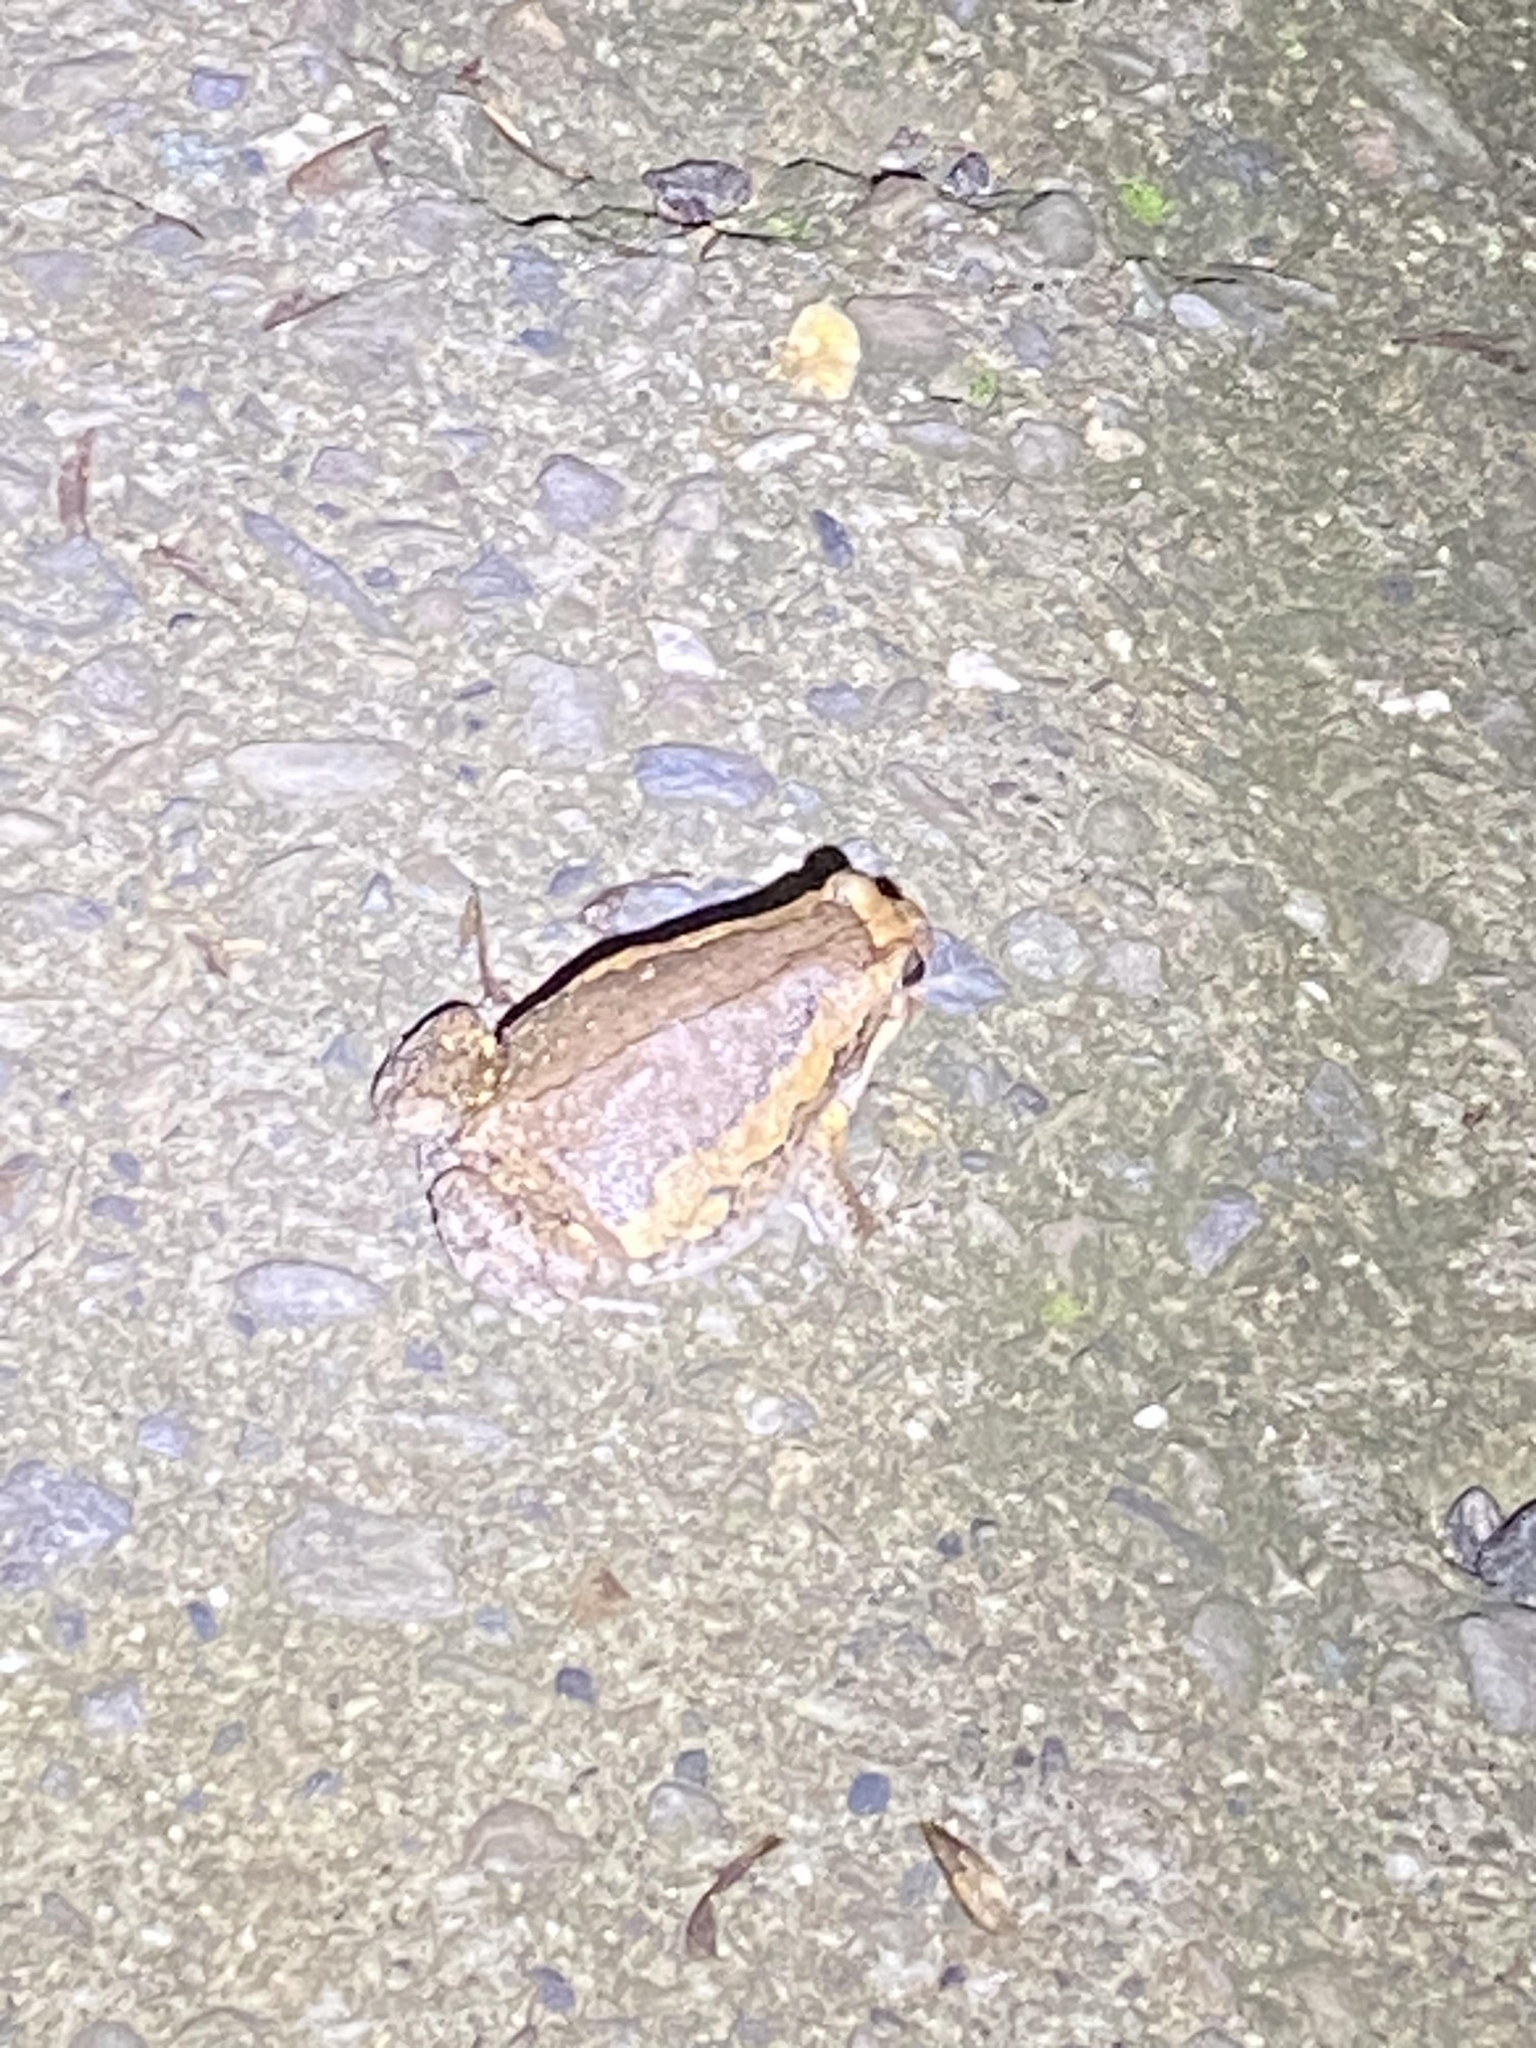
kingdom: Animalia
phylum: Chordata
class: Amphibia
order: Anura
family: Microhylidae
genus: Kaloula
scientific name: Kaloula pulchra
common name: Common,banded bullfrog
